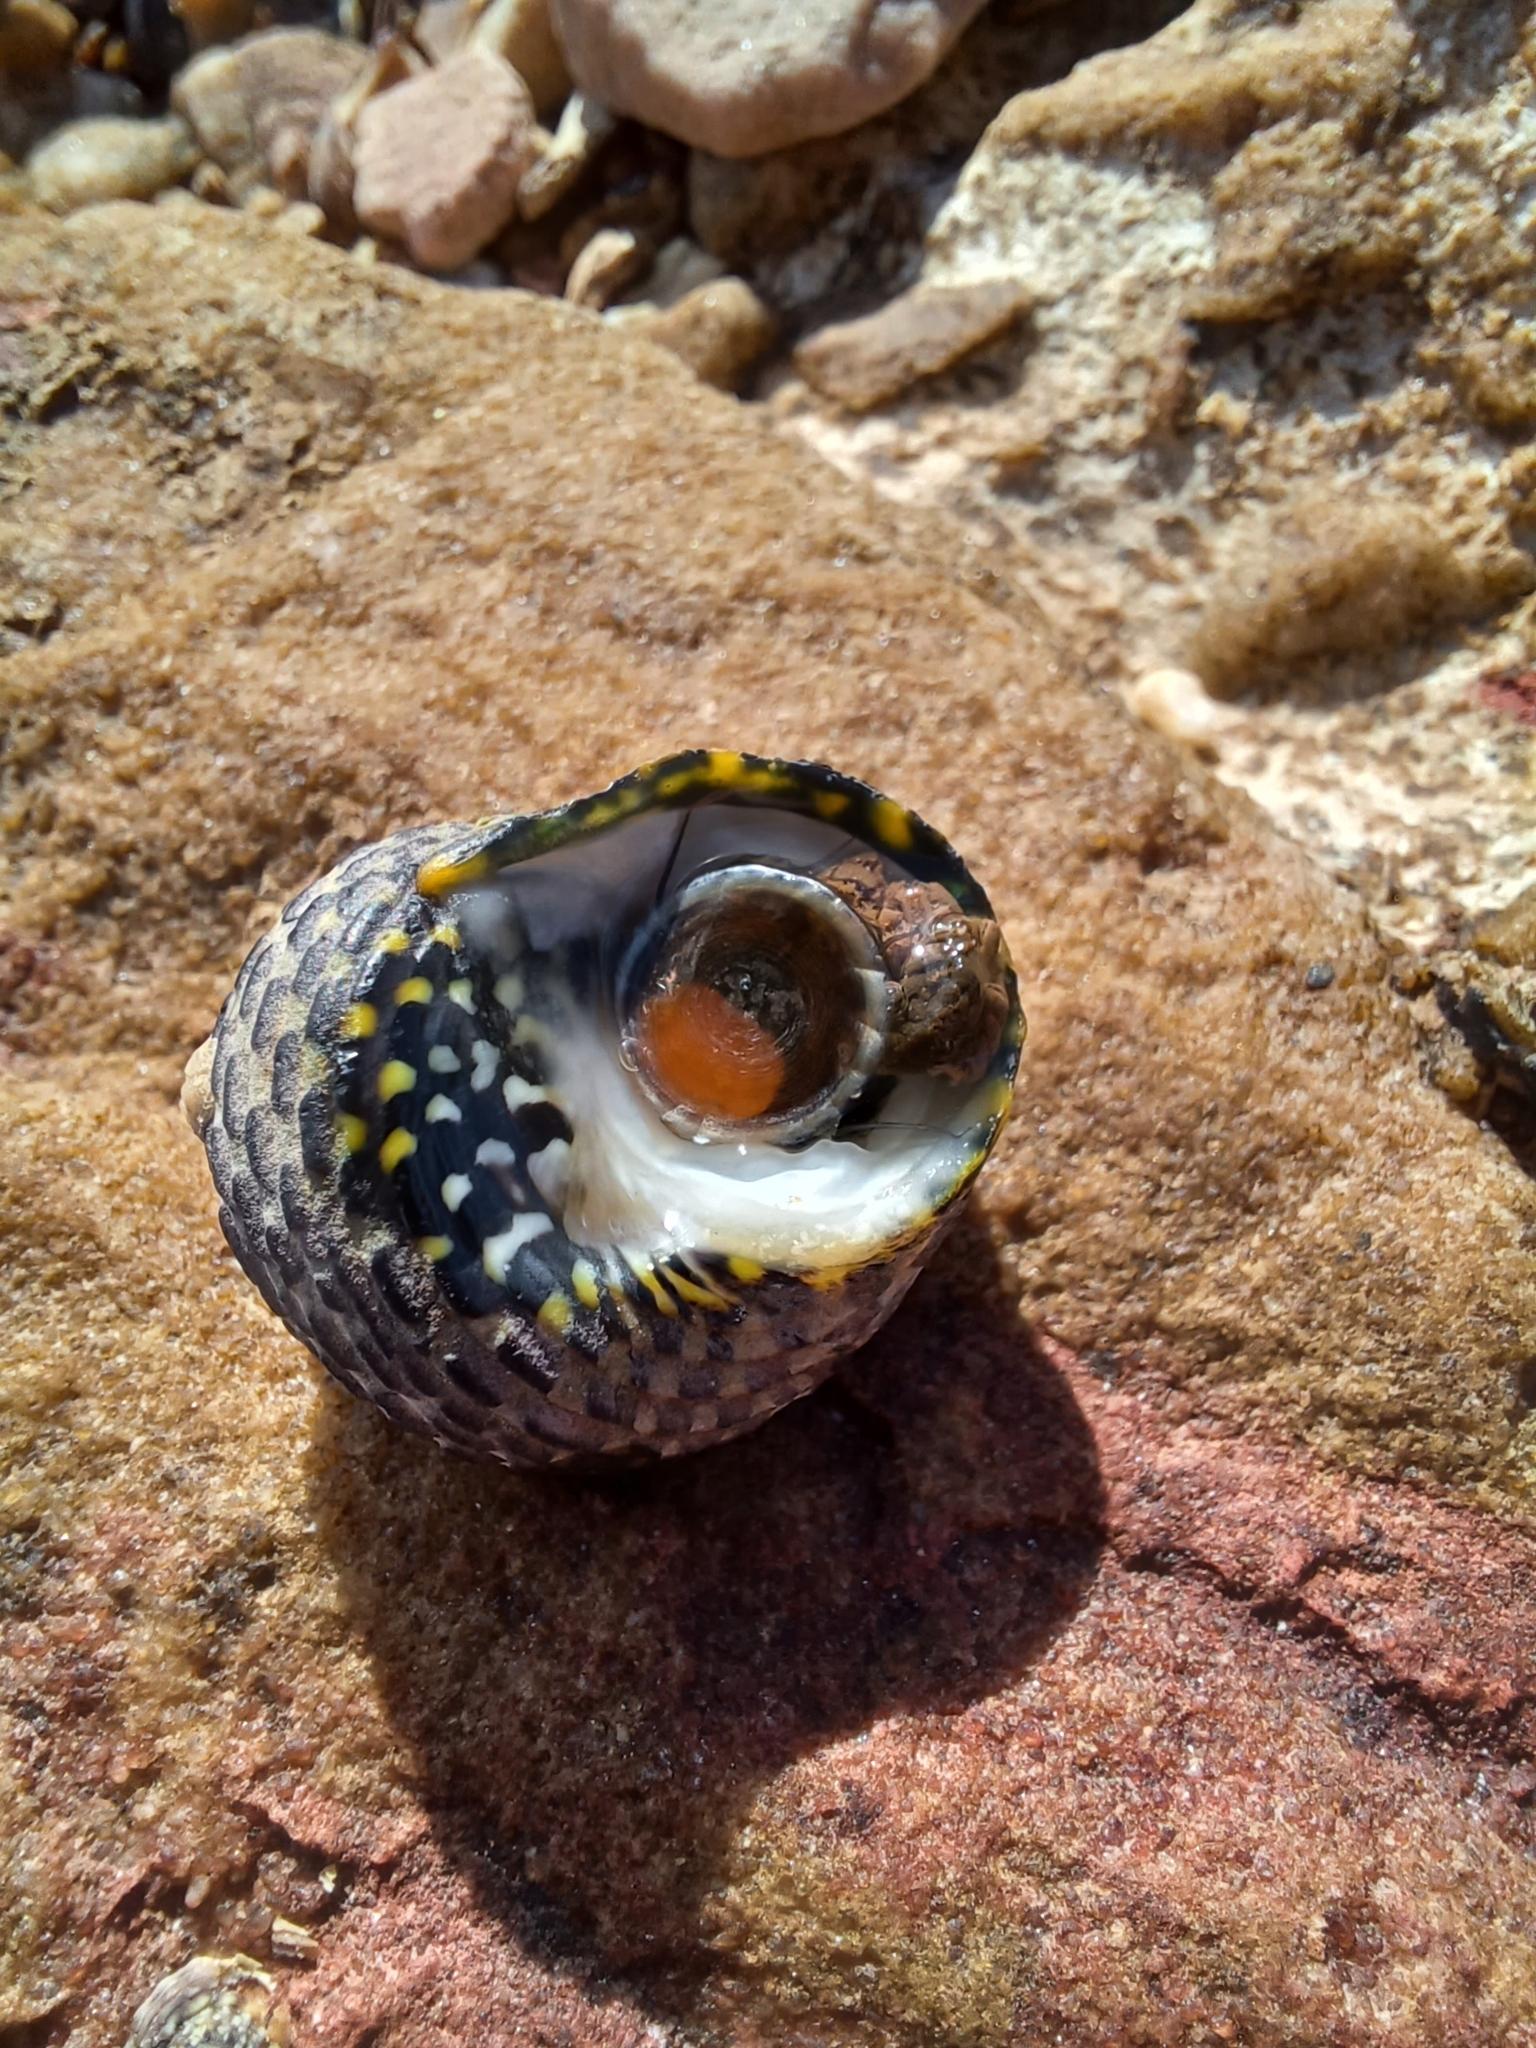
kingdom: Animalia
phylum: Mollusca
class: Gastropoda
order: Trochida
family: Trochidae
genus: Diloma
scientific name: Diloma concameratum
